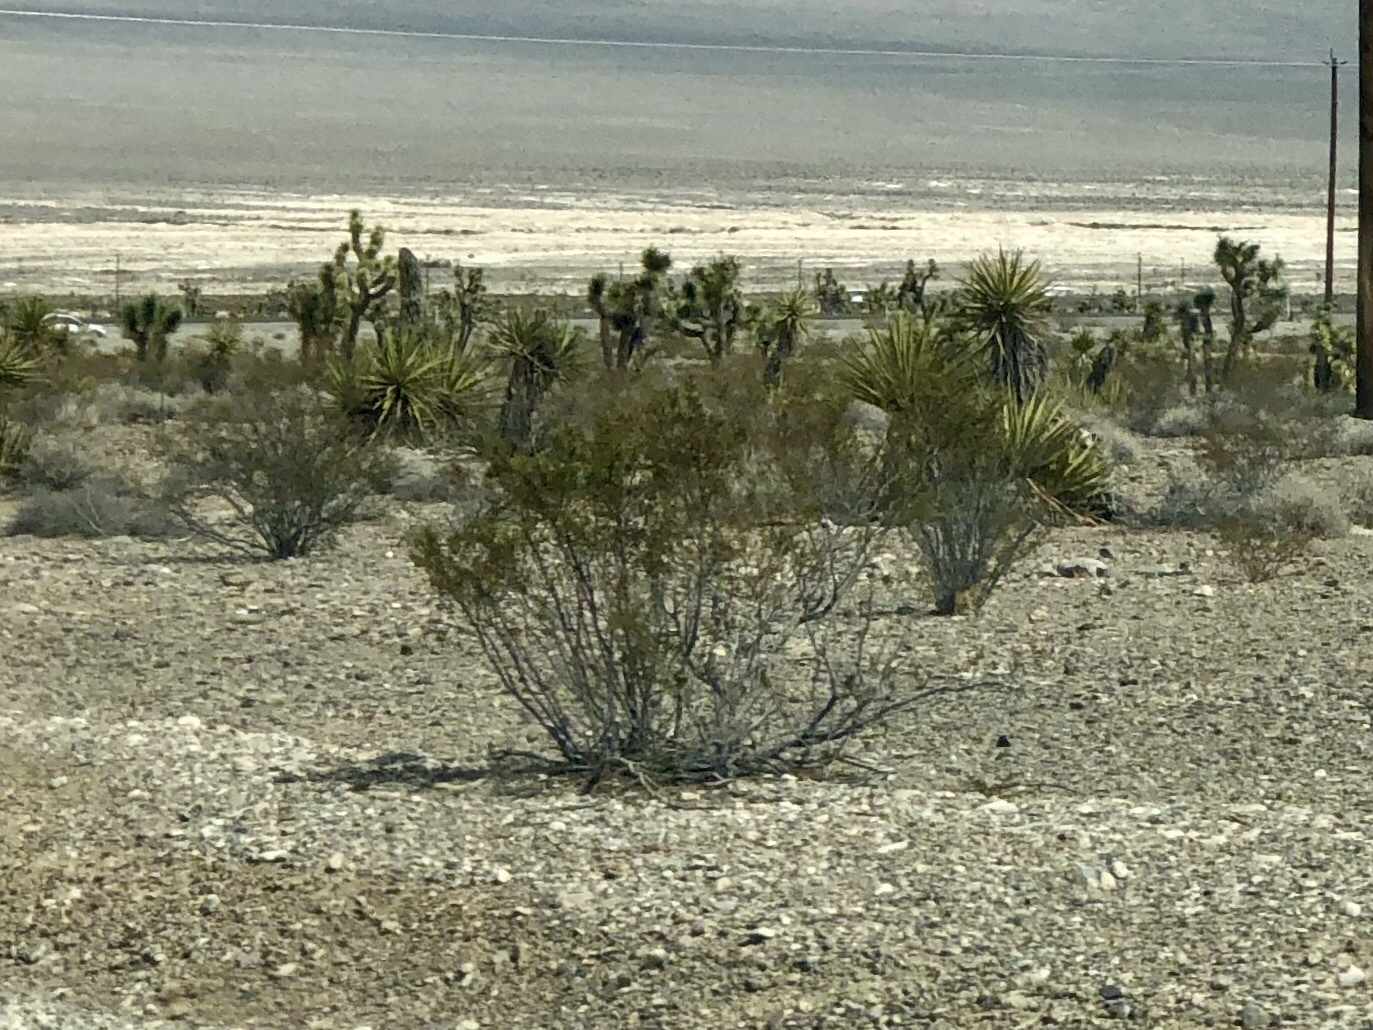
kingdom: Plantae
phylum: Tracheophyta
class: Magnoliopsida
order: Zygophyllales
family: Zygophyllaceae
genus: Larrea
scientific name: Larrea tridentata
